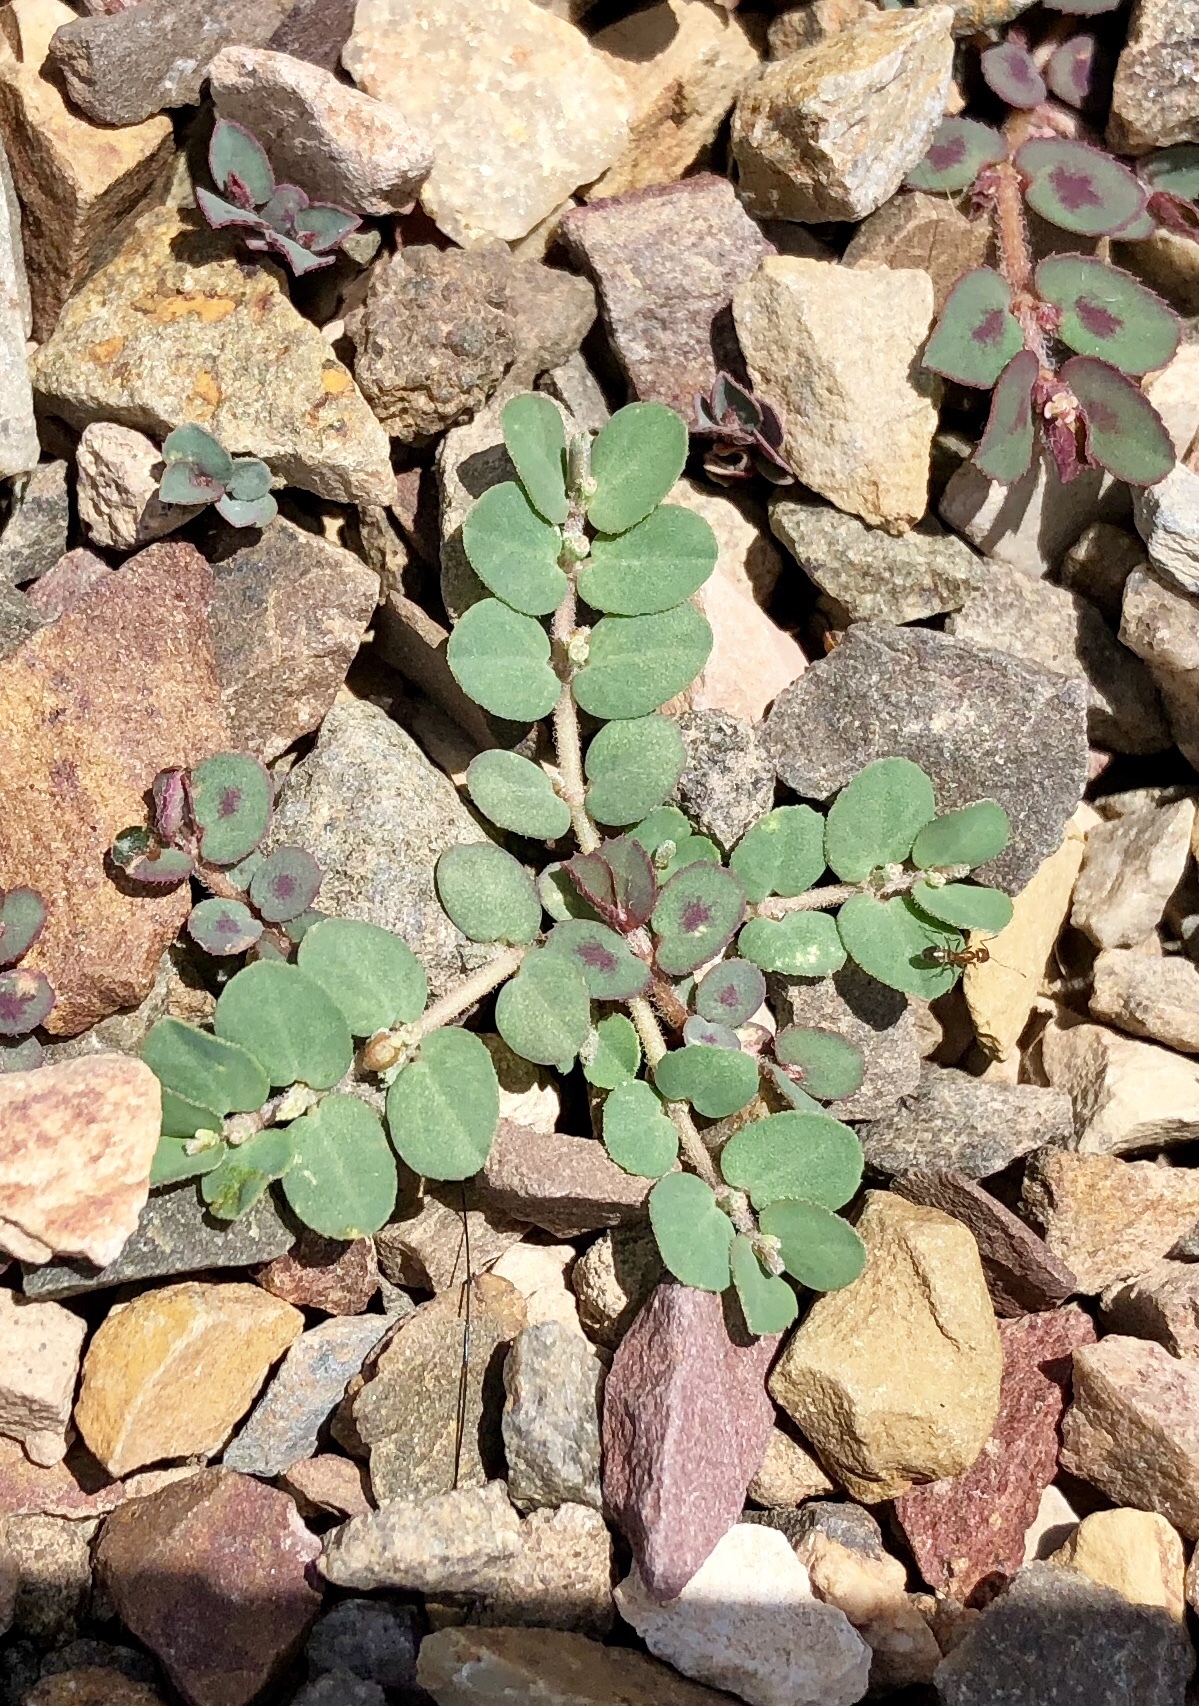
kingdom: Plantae
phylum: Tracheophyta
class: Magnoliopsida
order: Malpighiales
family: Euphorbiaceae
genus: Euphorbia
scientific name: Euphorbia prostrata
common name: Prostrate sandmat
